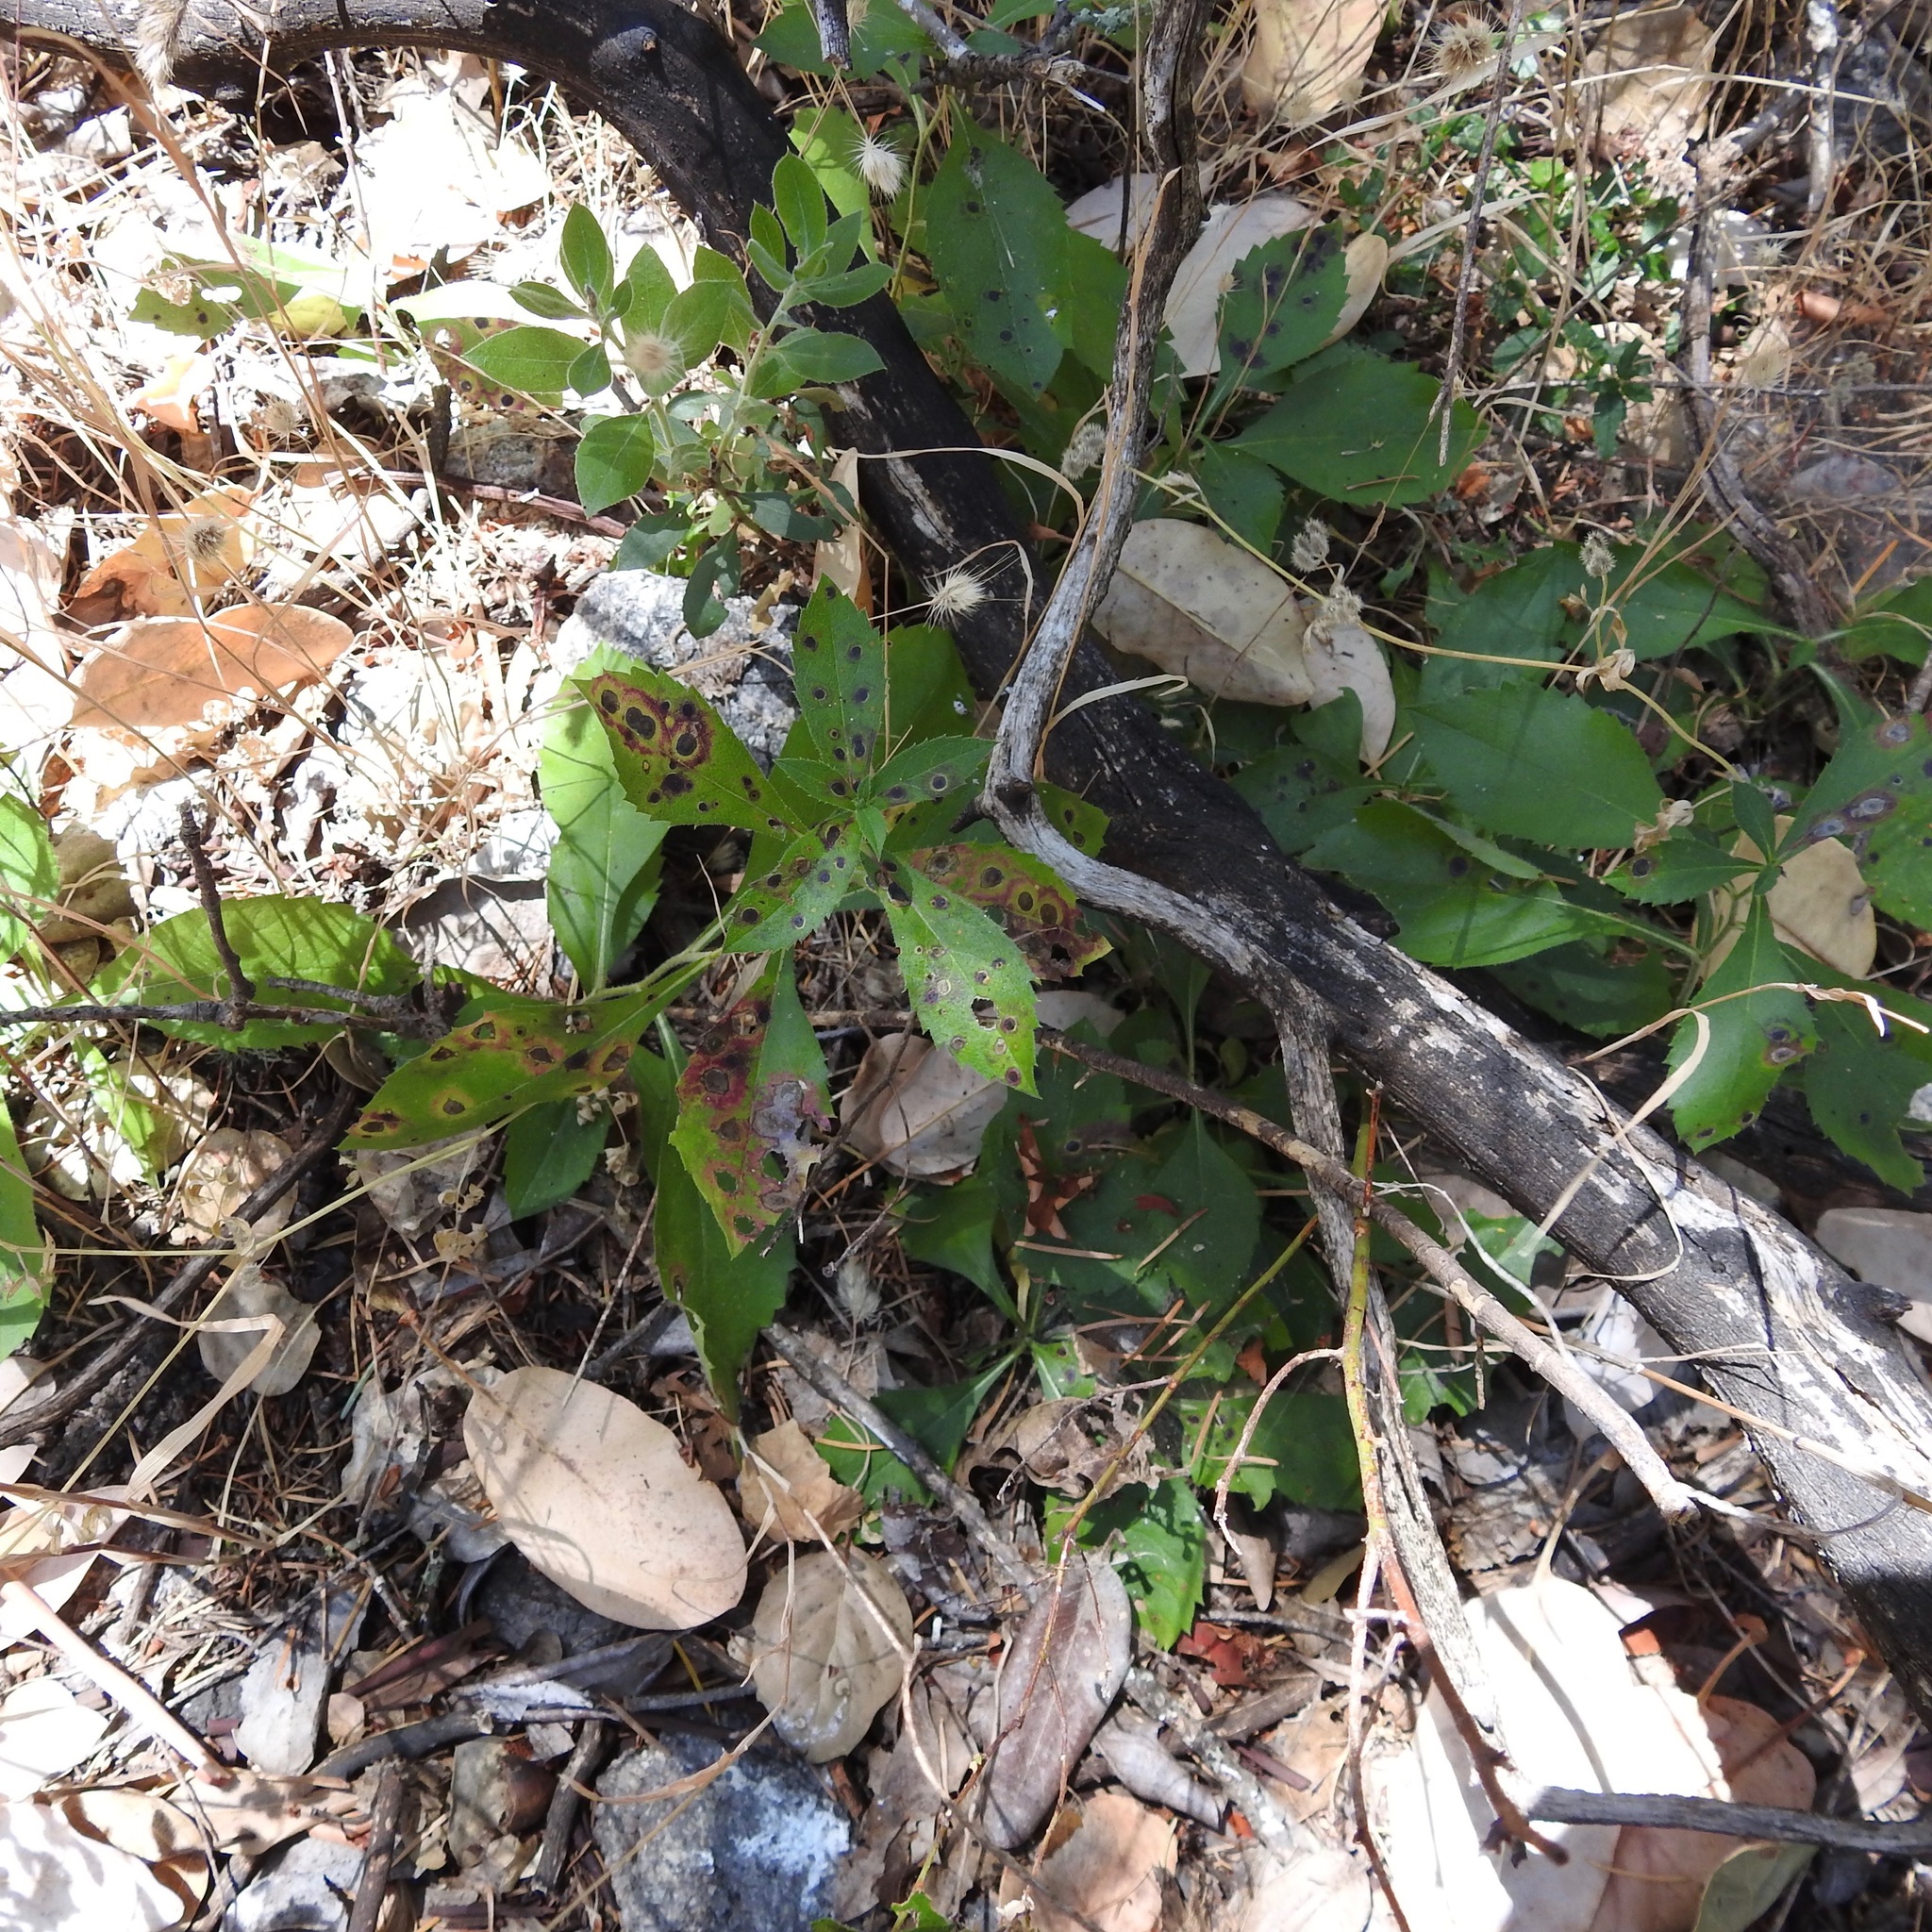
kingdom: Plantae
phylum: Tracheophyta
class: Magnoliopsida
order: Asterales
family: Asteraceae
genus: Eurybia
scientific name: Eurybia radulina
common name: Rough-leaved aster
